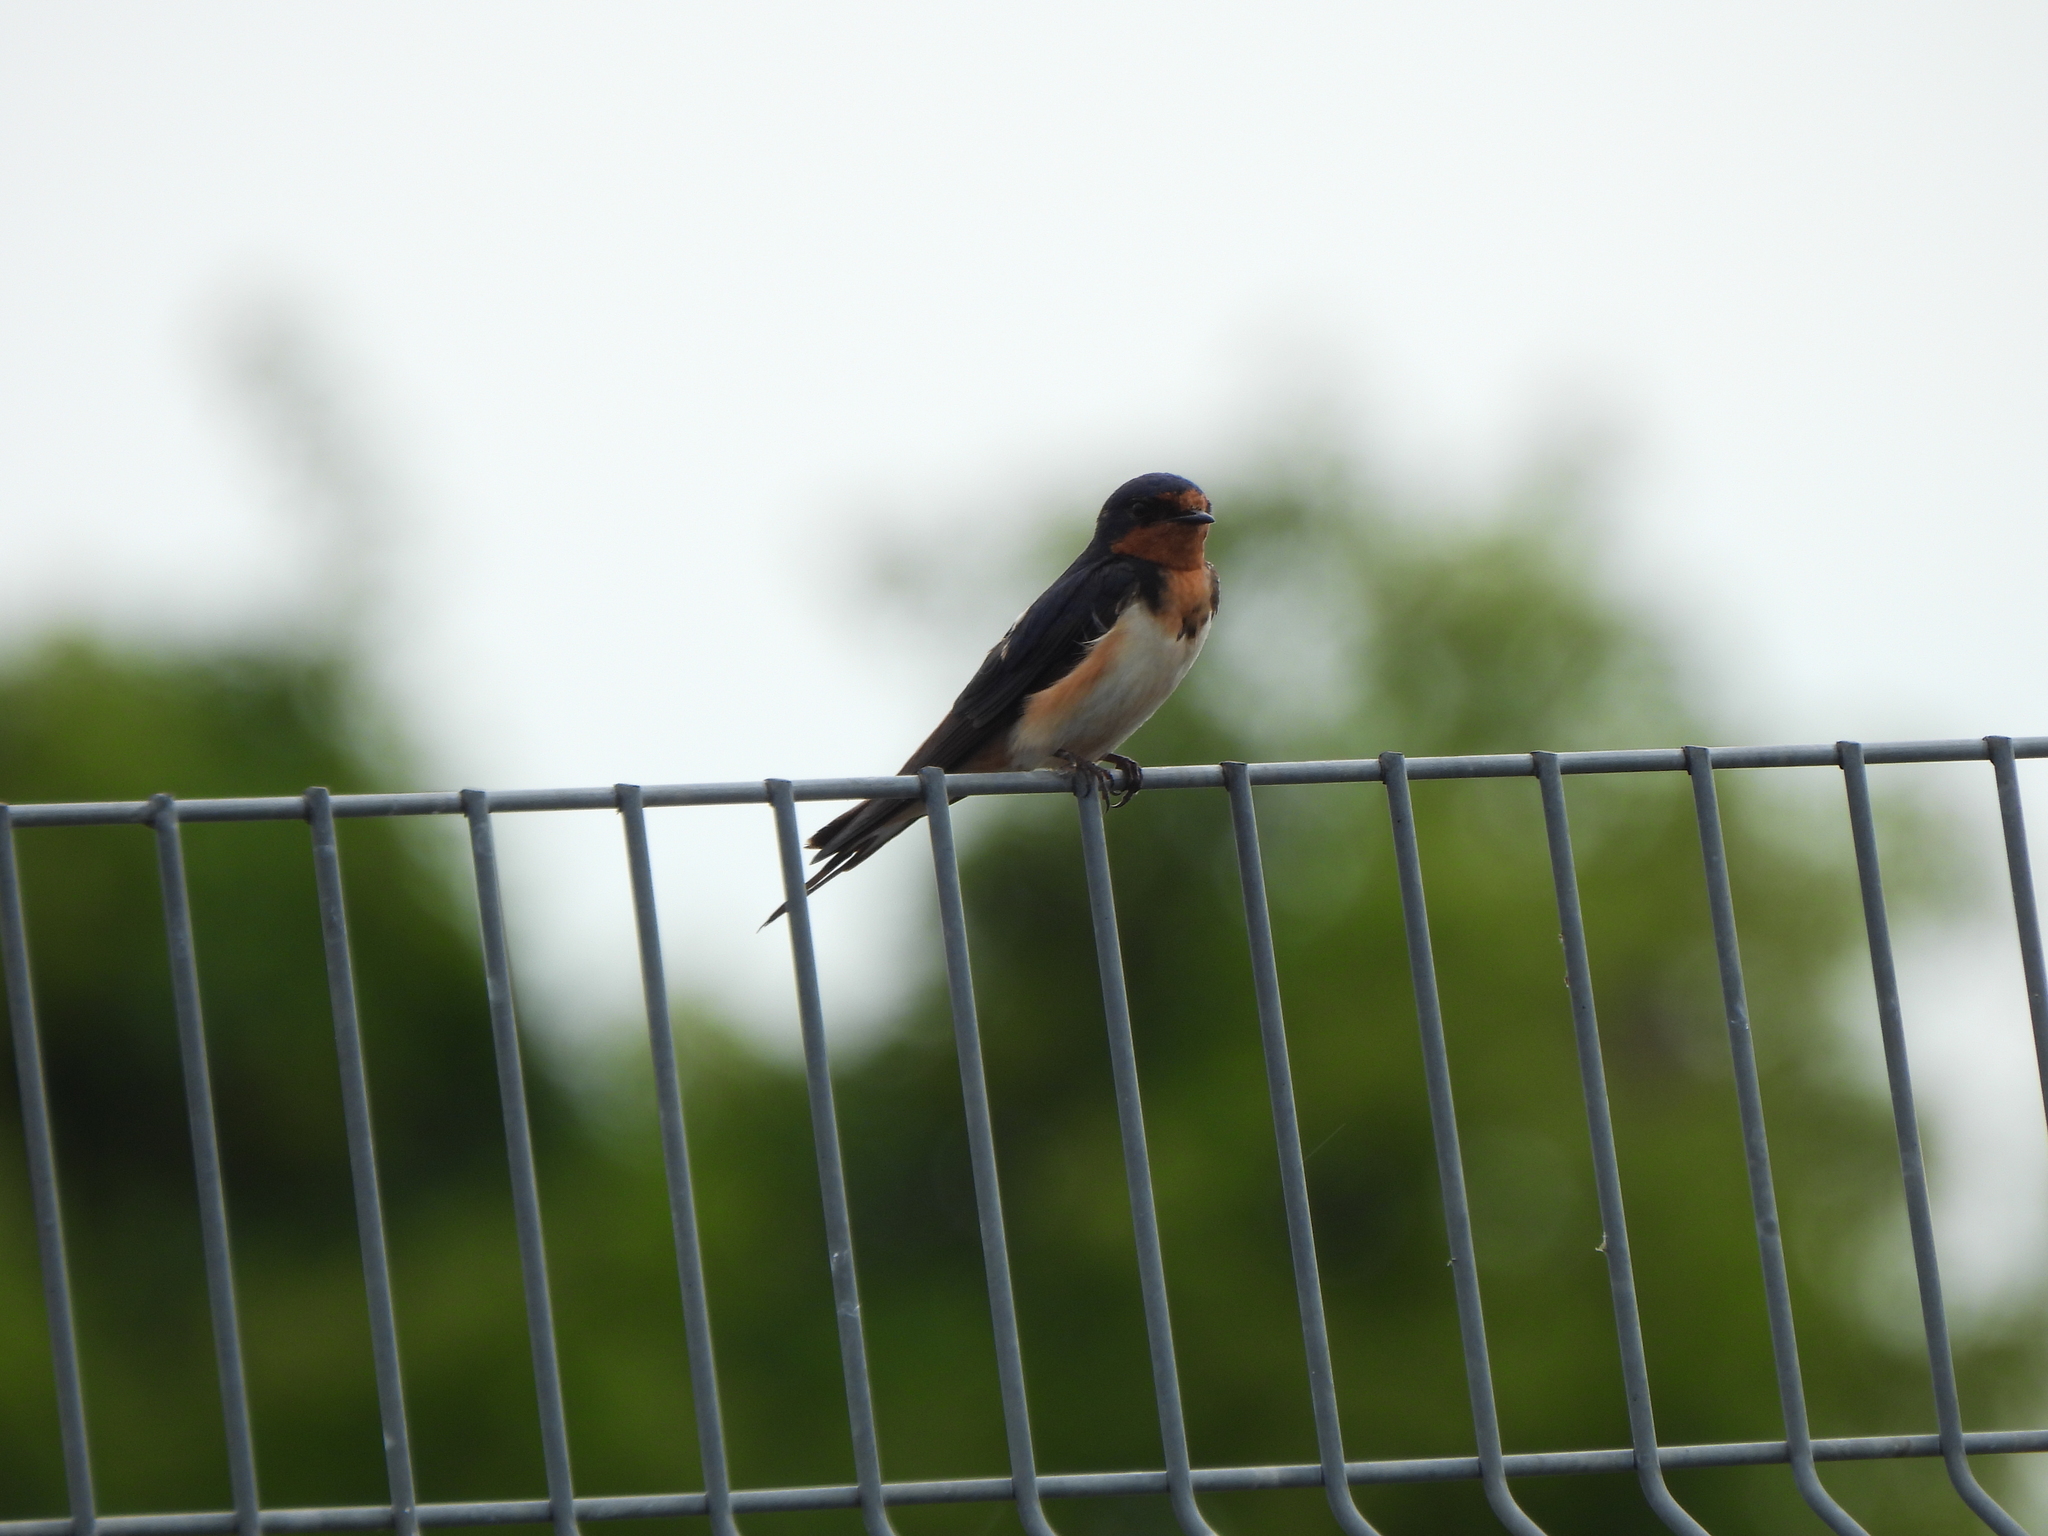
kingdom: Animalia
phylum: Chordata
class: Aves
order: Passeriformes
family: Hirundinidae
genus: Hirundo
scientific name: Hirundo rustica
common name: Barn swallow
